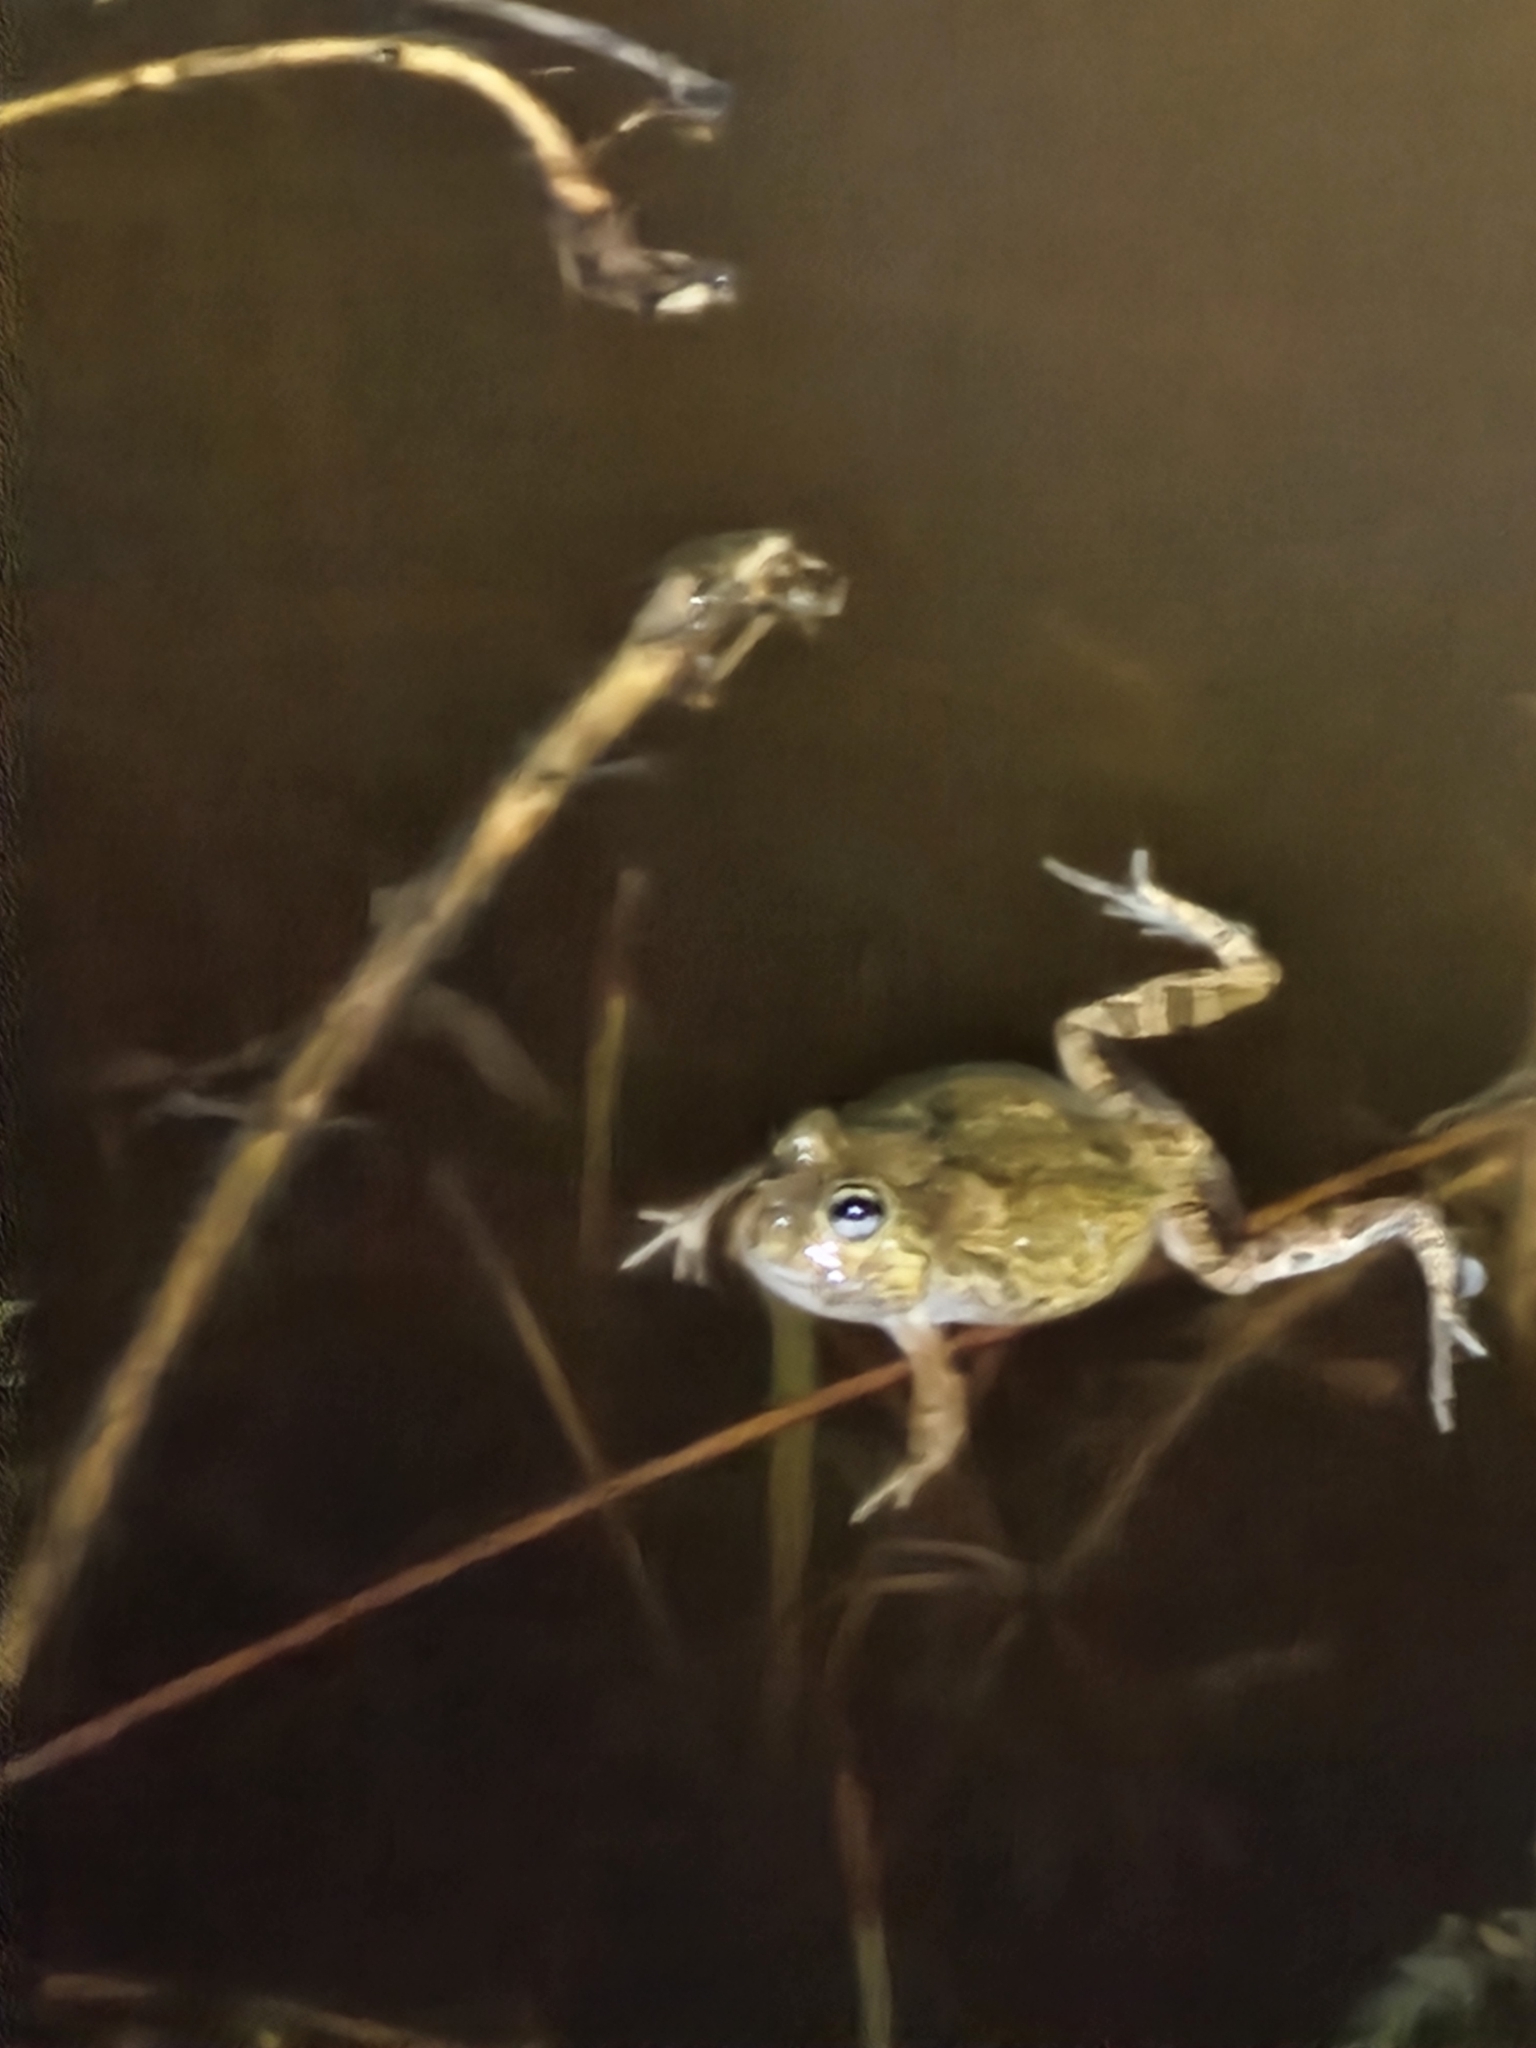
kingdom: Animalia
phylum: Chordata
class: Amphibia
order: Anura
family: Limnodynastidae
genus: Platyplectrum
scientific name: Platyplectrum ornatum
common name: Ornate burrowing frog
